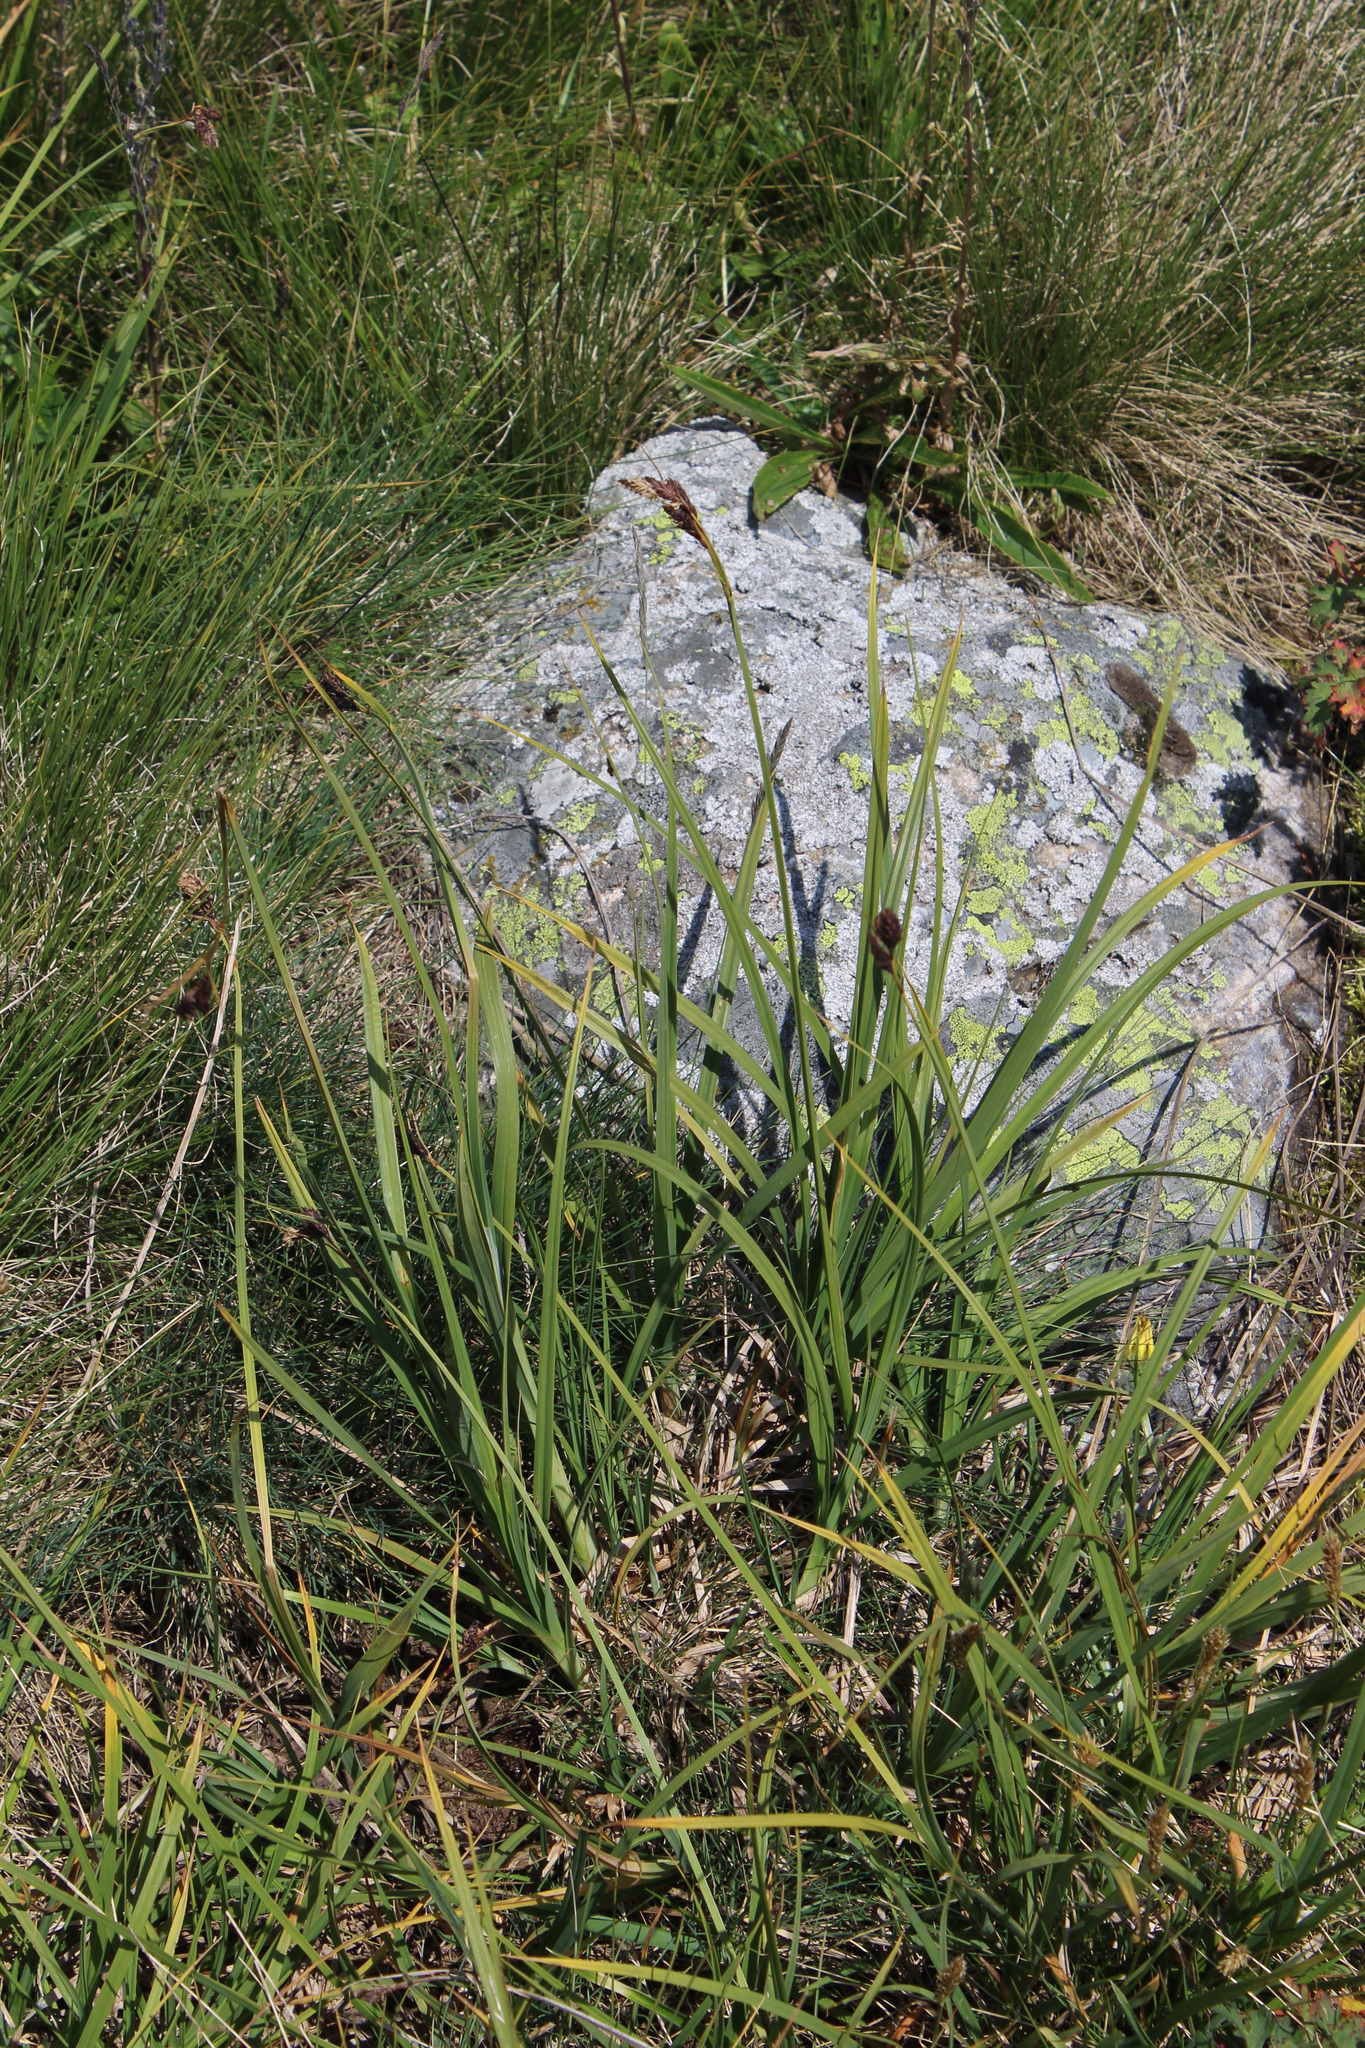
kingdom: Plantae
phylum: Tracheophyta
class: Liliopsida
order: Poales
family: Cyperaceae
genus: Carex
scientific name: Carex aterrima
